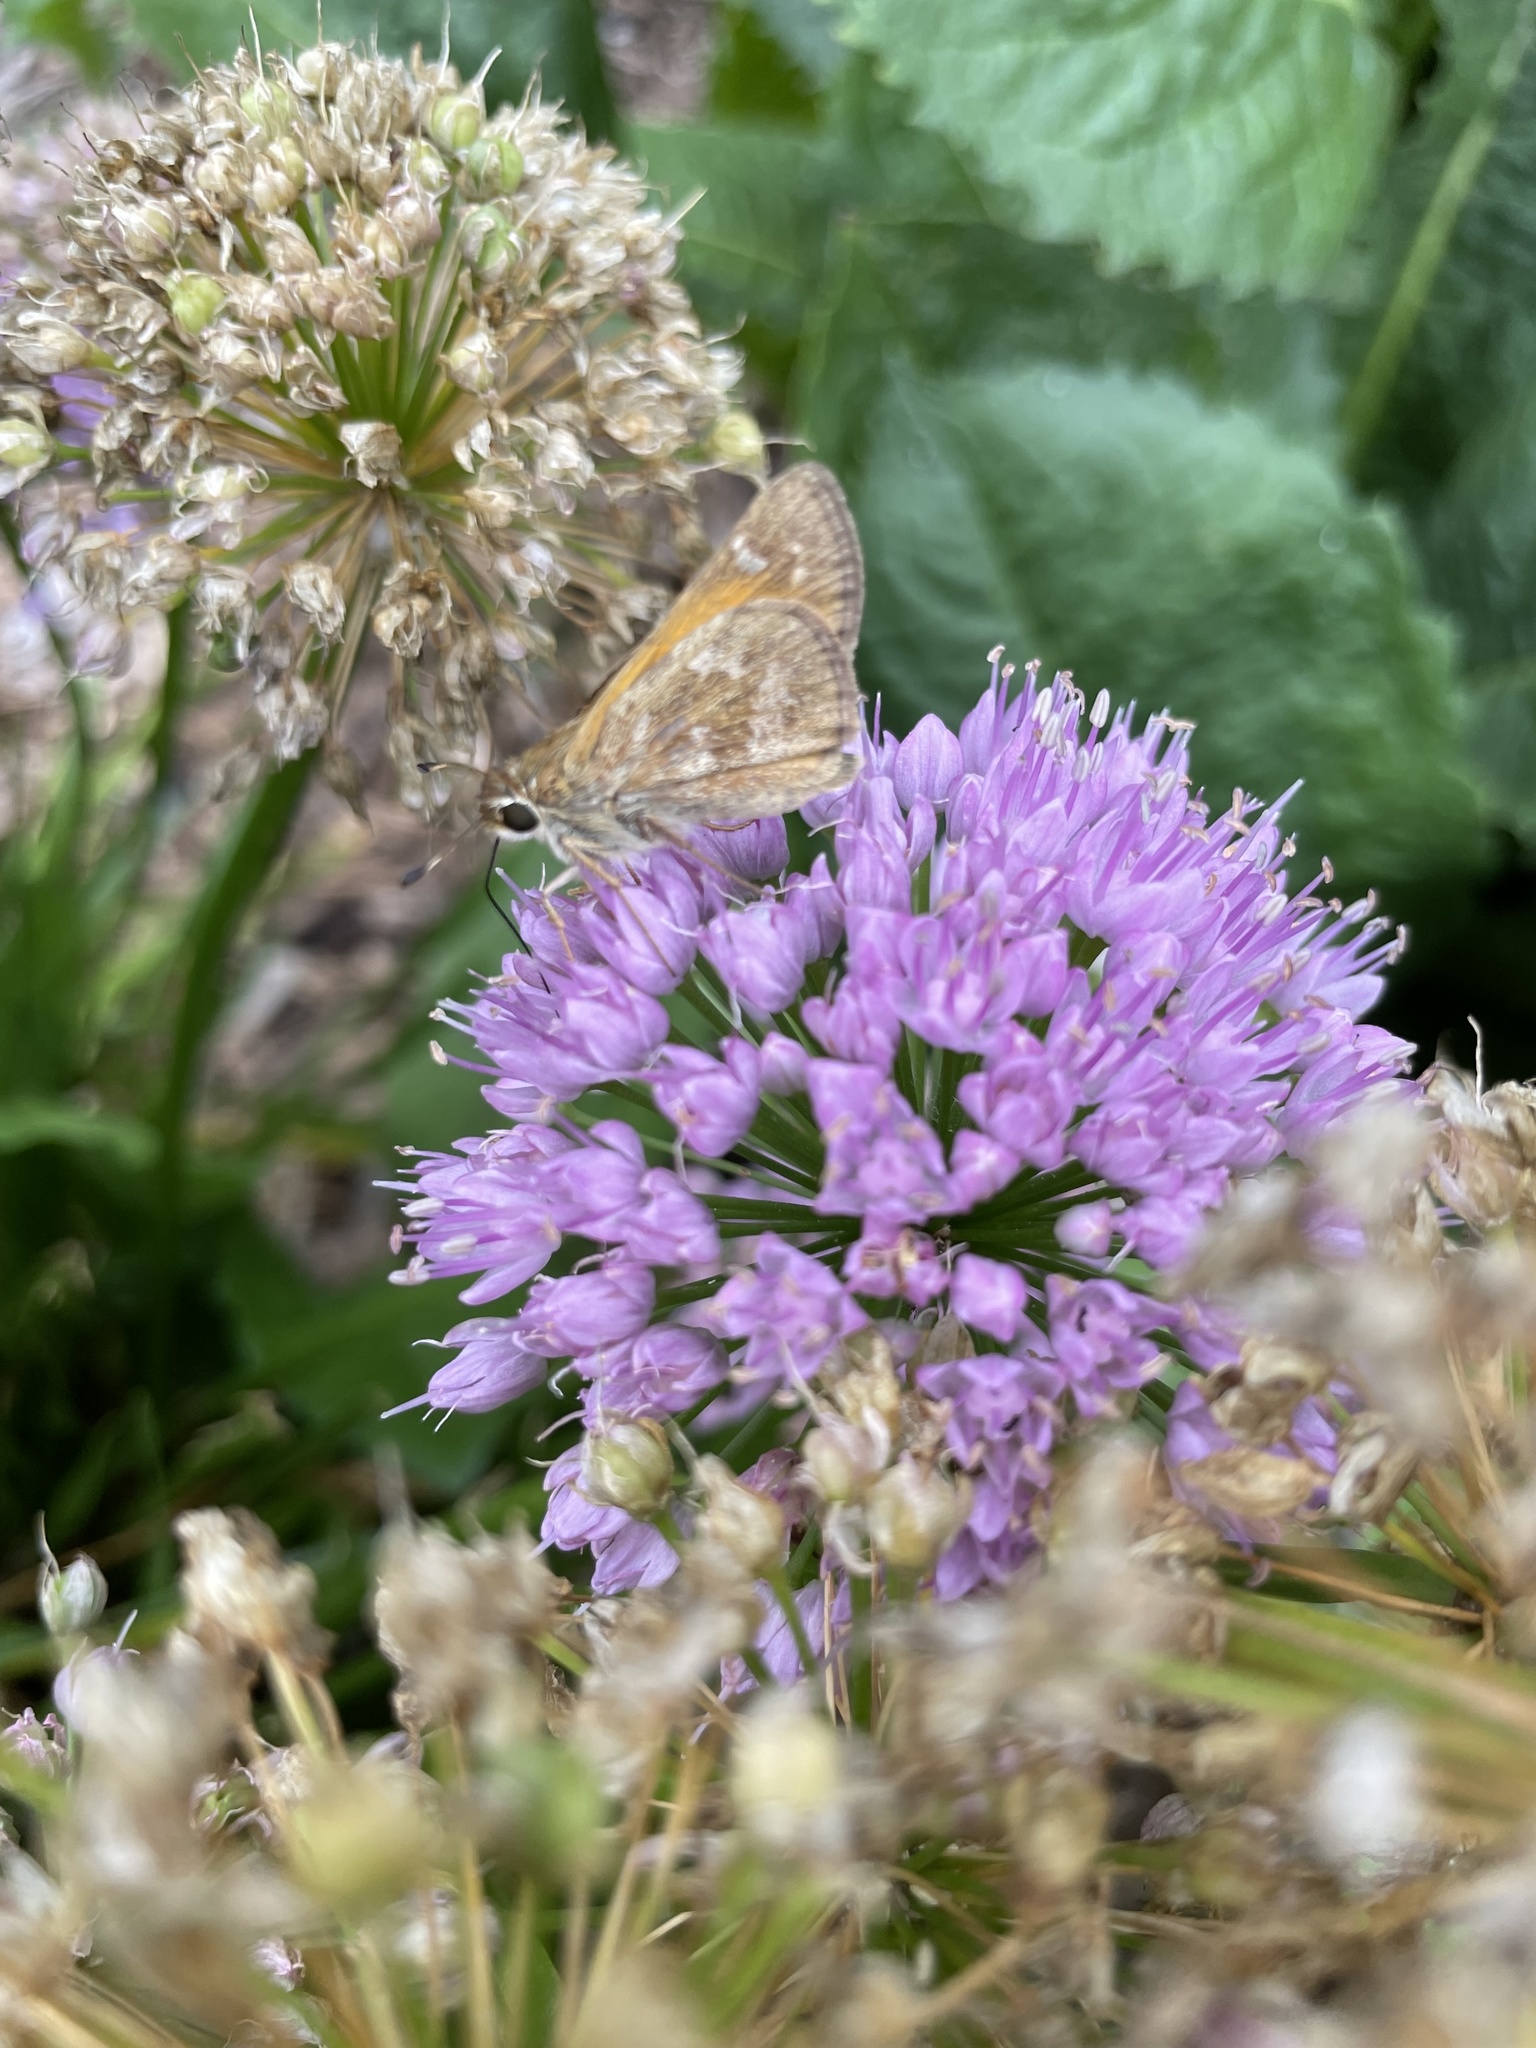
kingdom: Animalia
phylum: Arthropoda
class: Insecta
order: Lepidoptera
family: Hesperiidae
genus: Atalopedes
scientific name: Atalopedes
